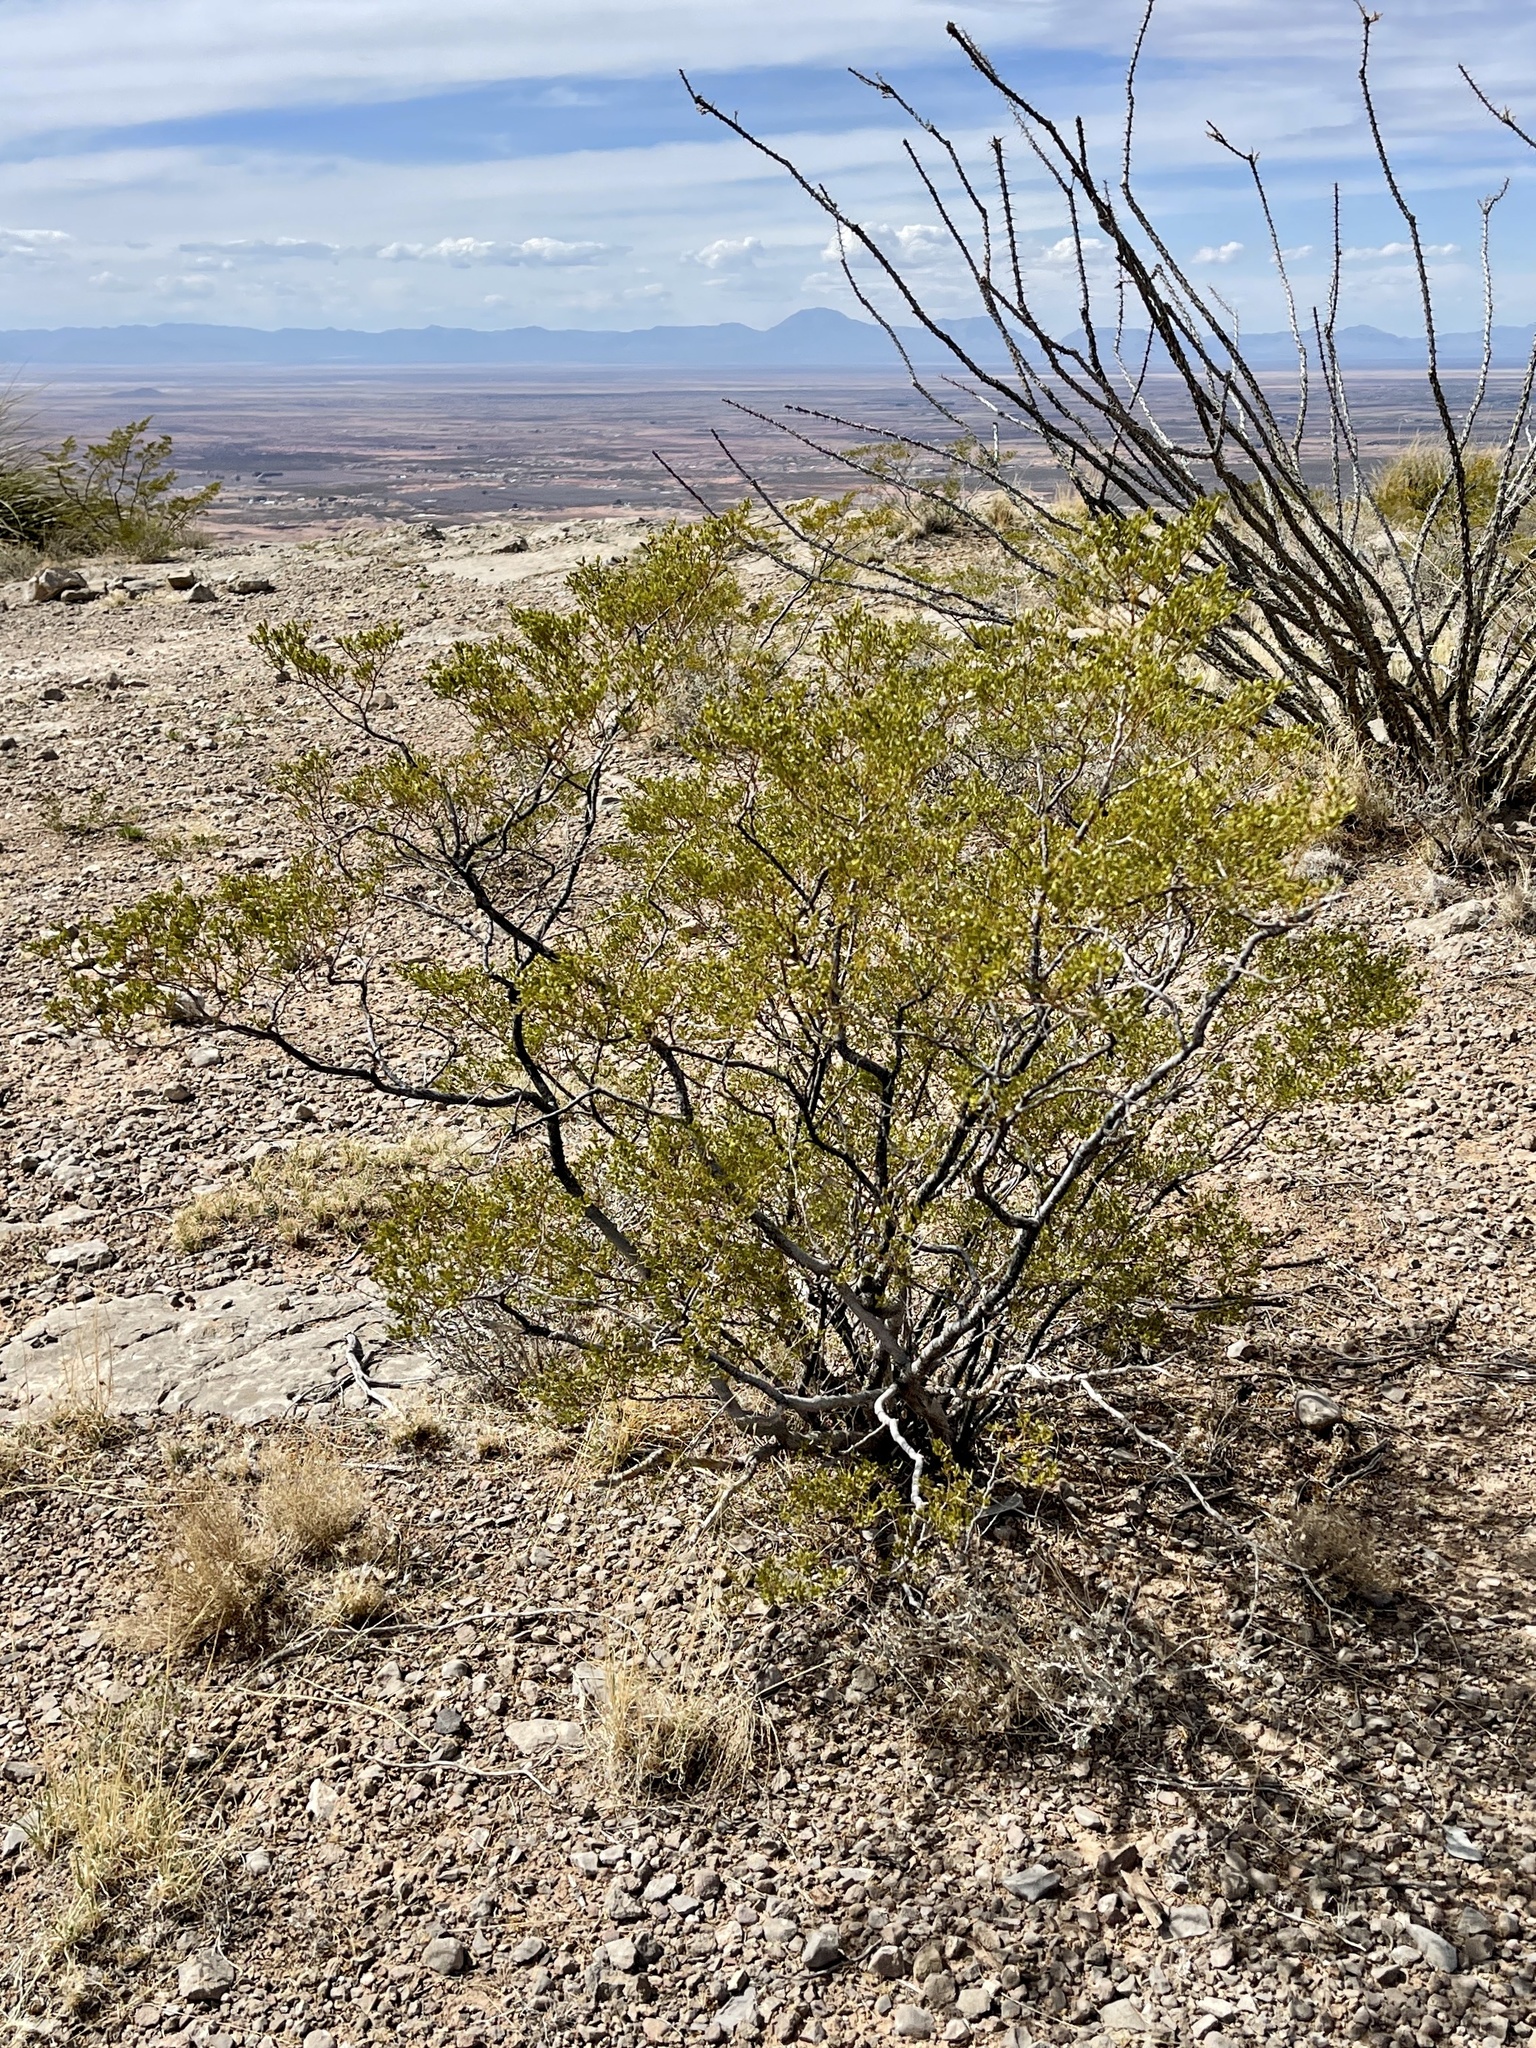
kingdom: Plantae
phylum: Tracheophyta
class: Magnoliopsida
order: Zygophyllales
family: Zygophyllaceae
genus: Larrea
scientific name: Larrea tridentata
